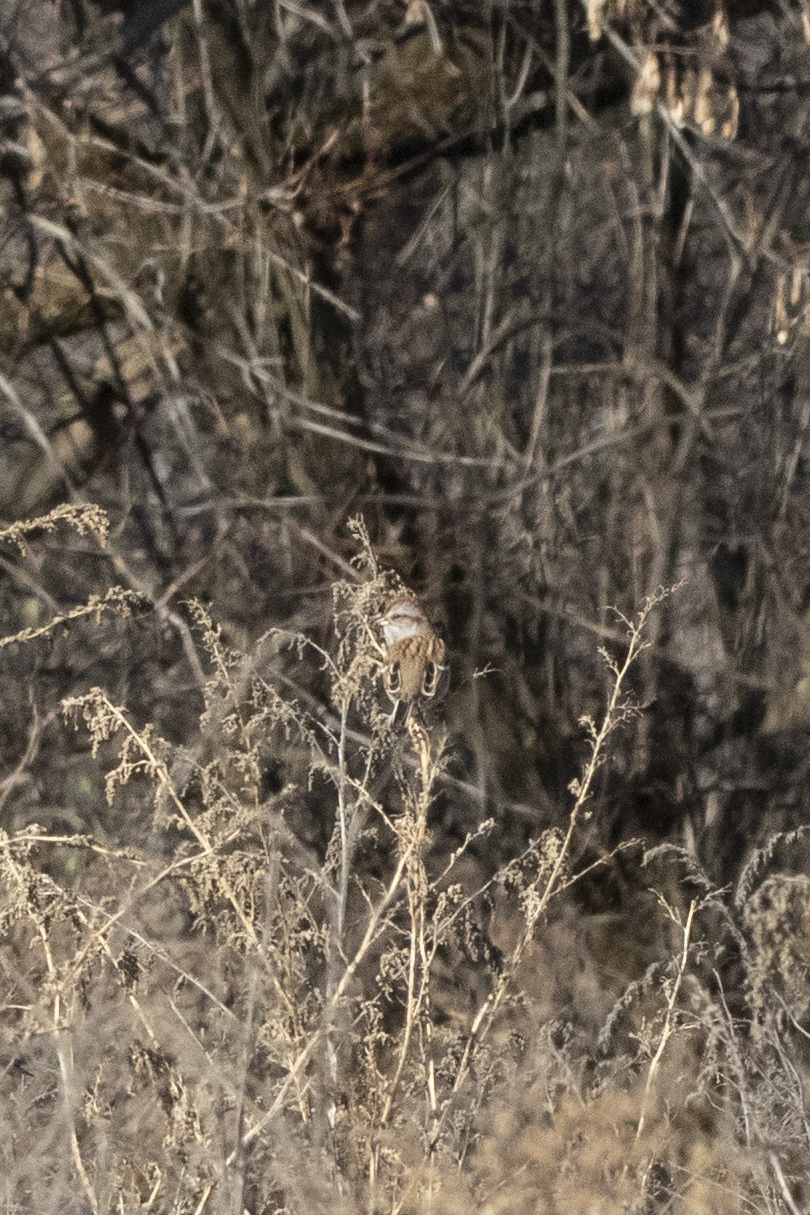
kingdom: Animalia
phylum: Chordata
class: Aves
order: Passeriformes
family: Passerellidae
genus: Spizelloides
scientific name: Spizelloides arborea
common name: American tree sparrow
